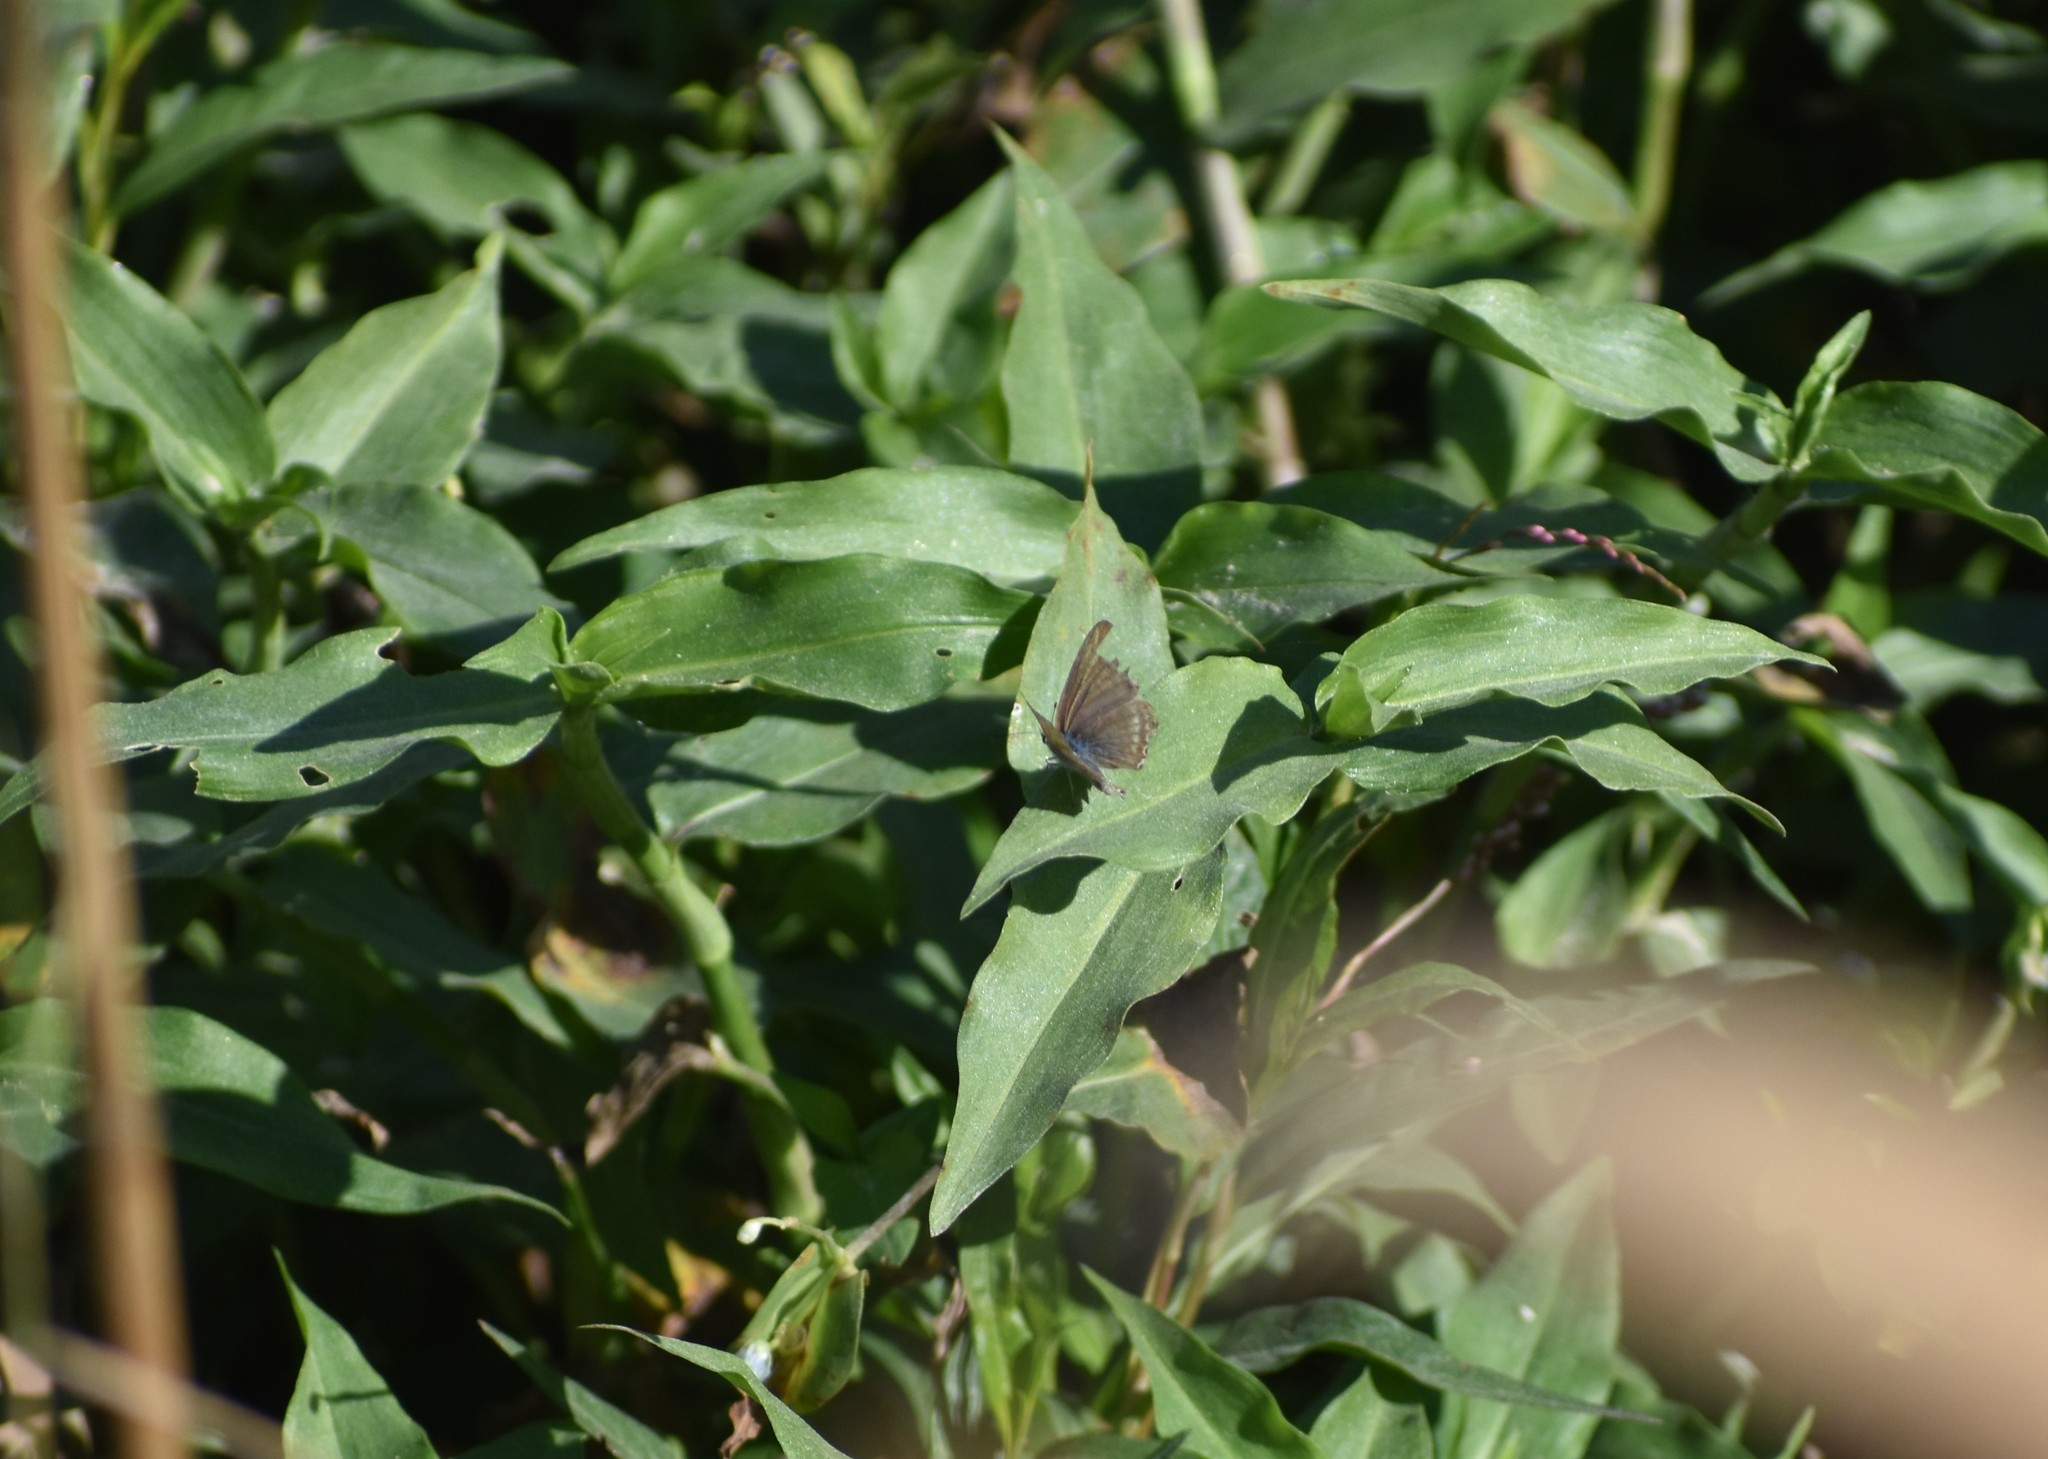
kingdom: Animalia
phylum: Arthropoda
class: Insecta
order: Lepidoptera
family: Lycaenidae
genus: Lampides
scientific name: Lampides boeticus
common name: Long-tailed blue
